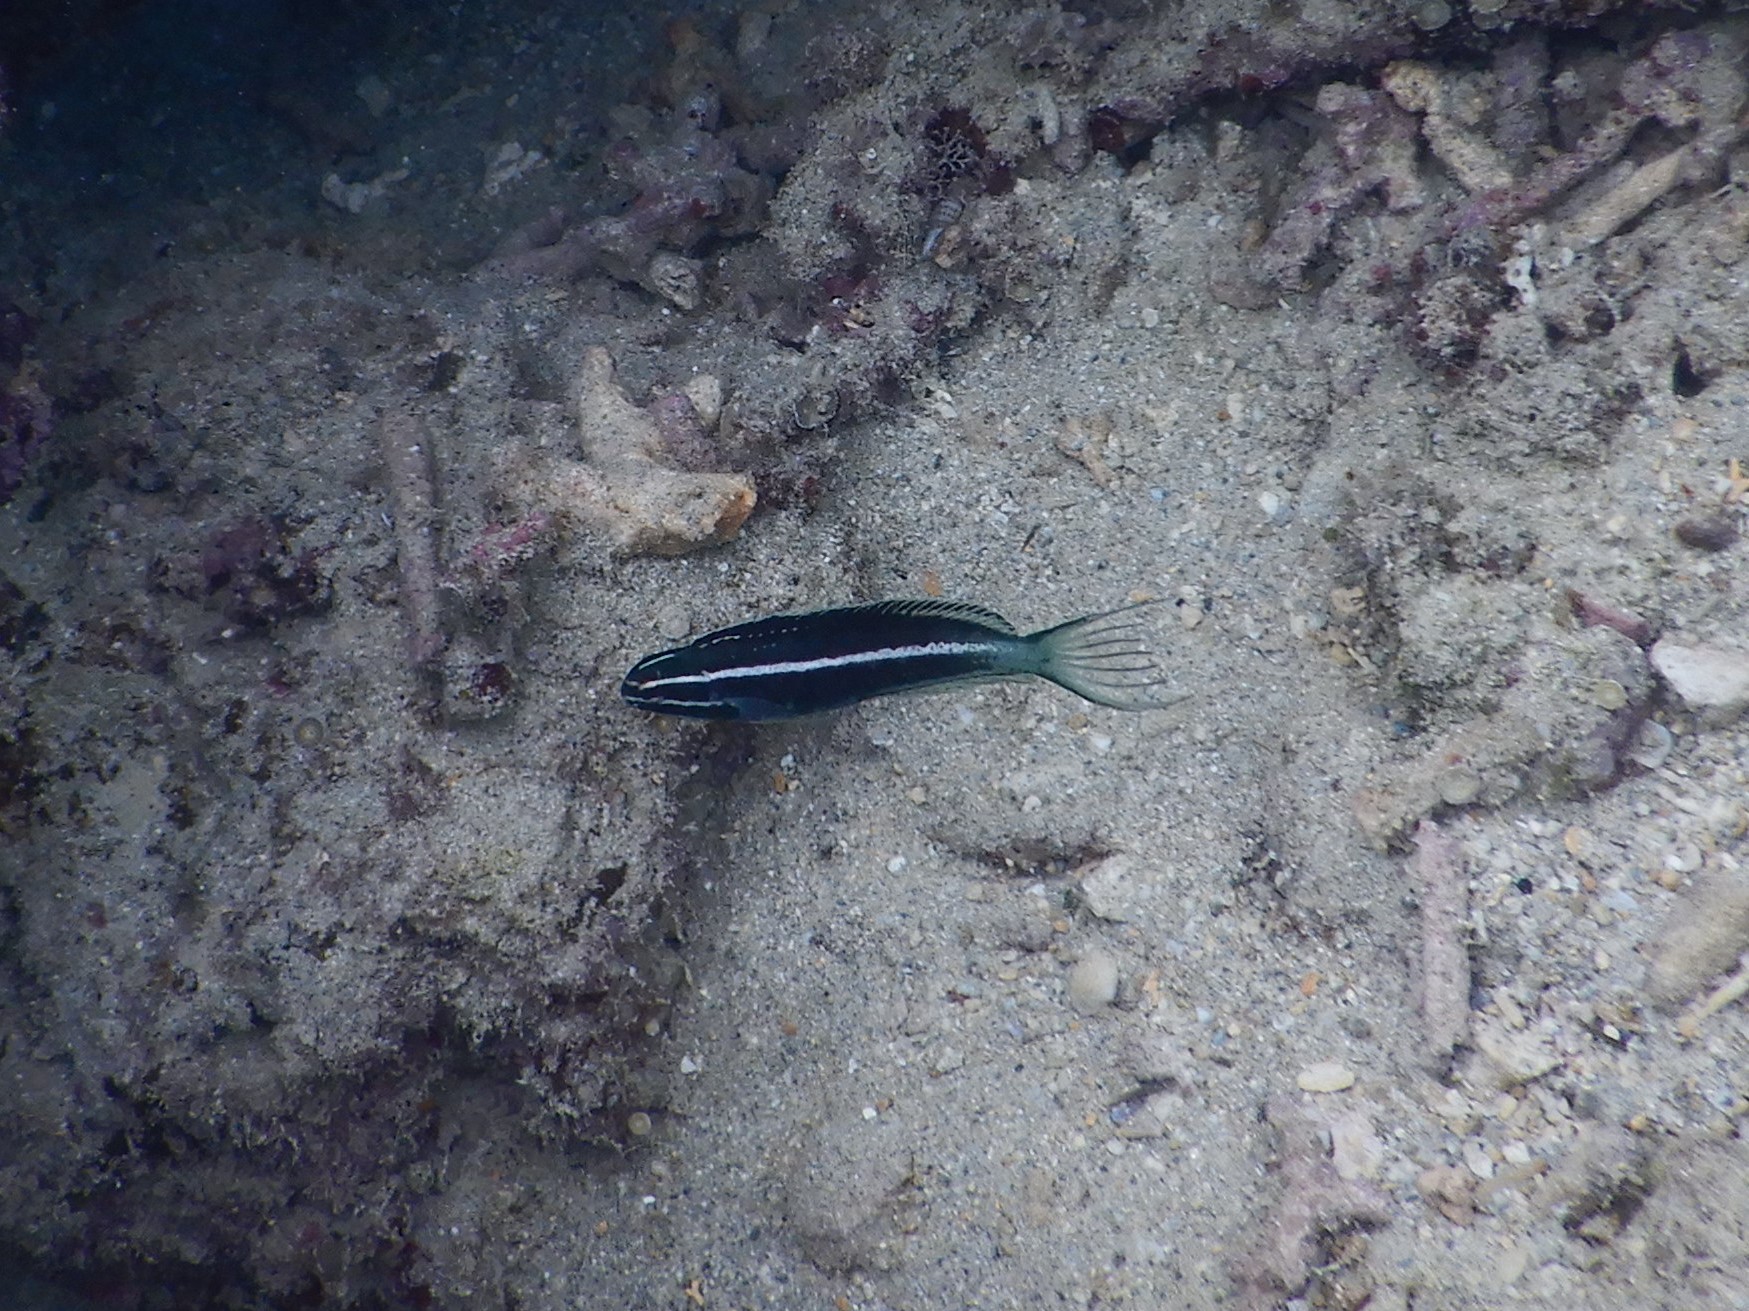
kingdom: Animalia
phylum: Chordata
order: Perciformes
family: Blenniidae
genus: Meiacanthus
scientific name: Meiacanthus kamoharai
